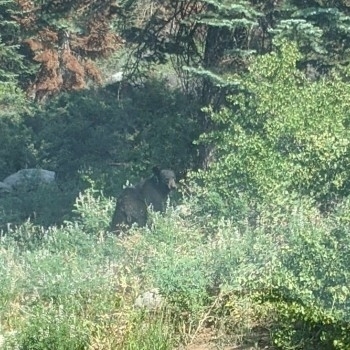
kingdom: Animalia
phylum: Chordata
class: Mammalia
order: Carnivora
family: Ursidae
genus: Ursus
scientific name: Ursus americanus
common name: American black bear
